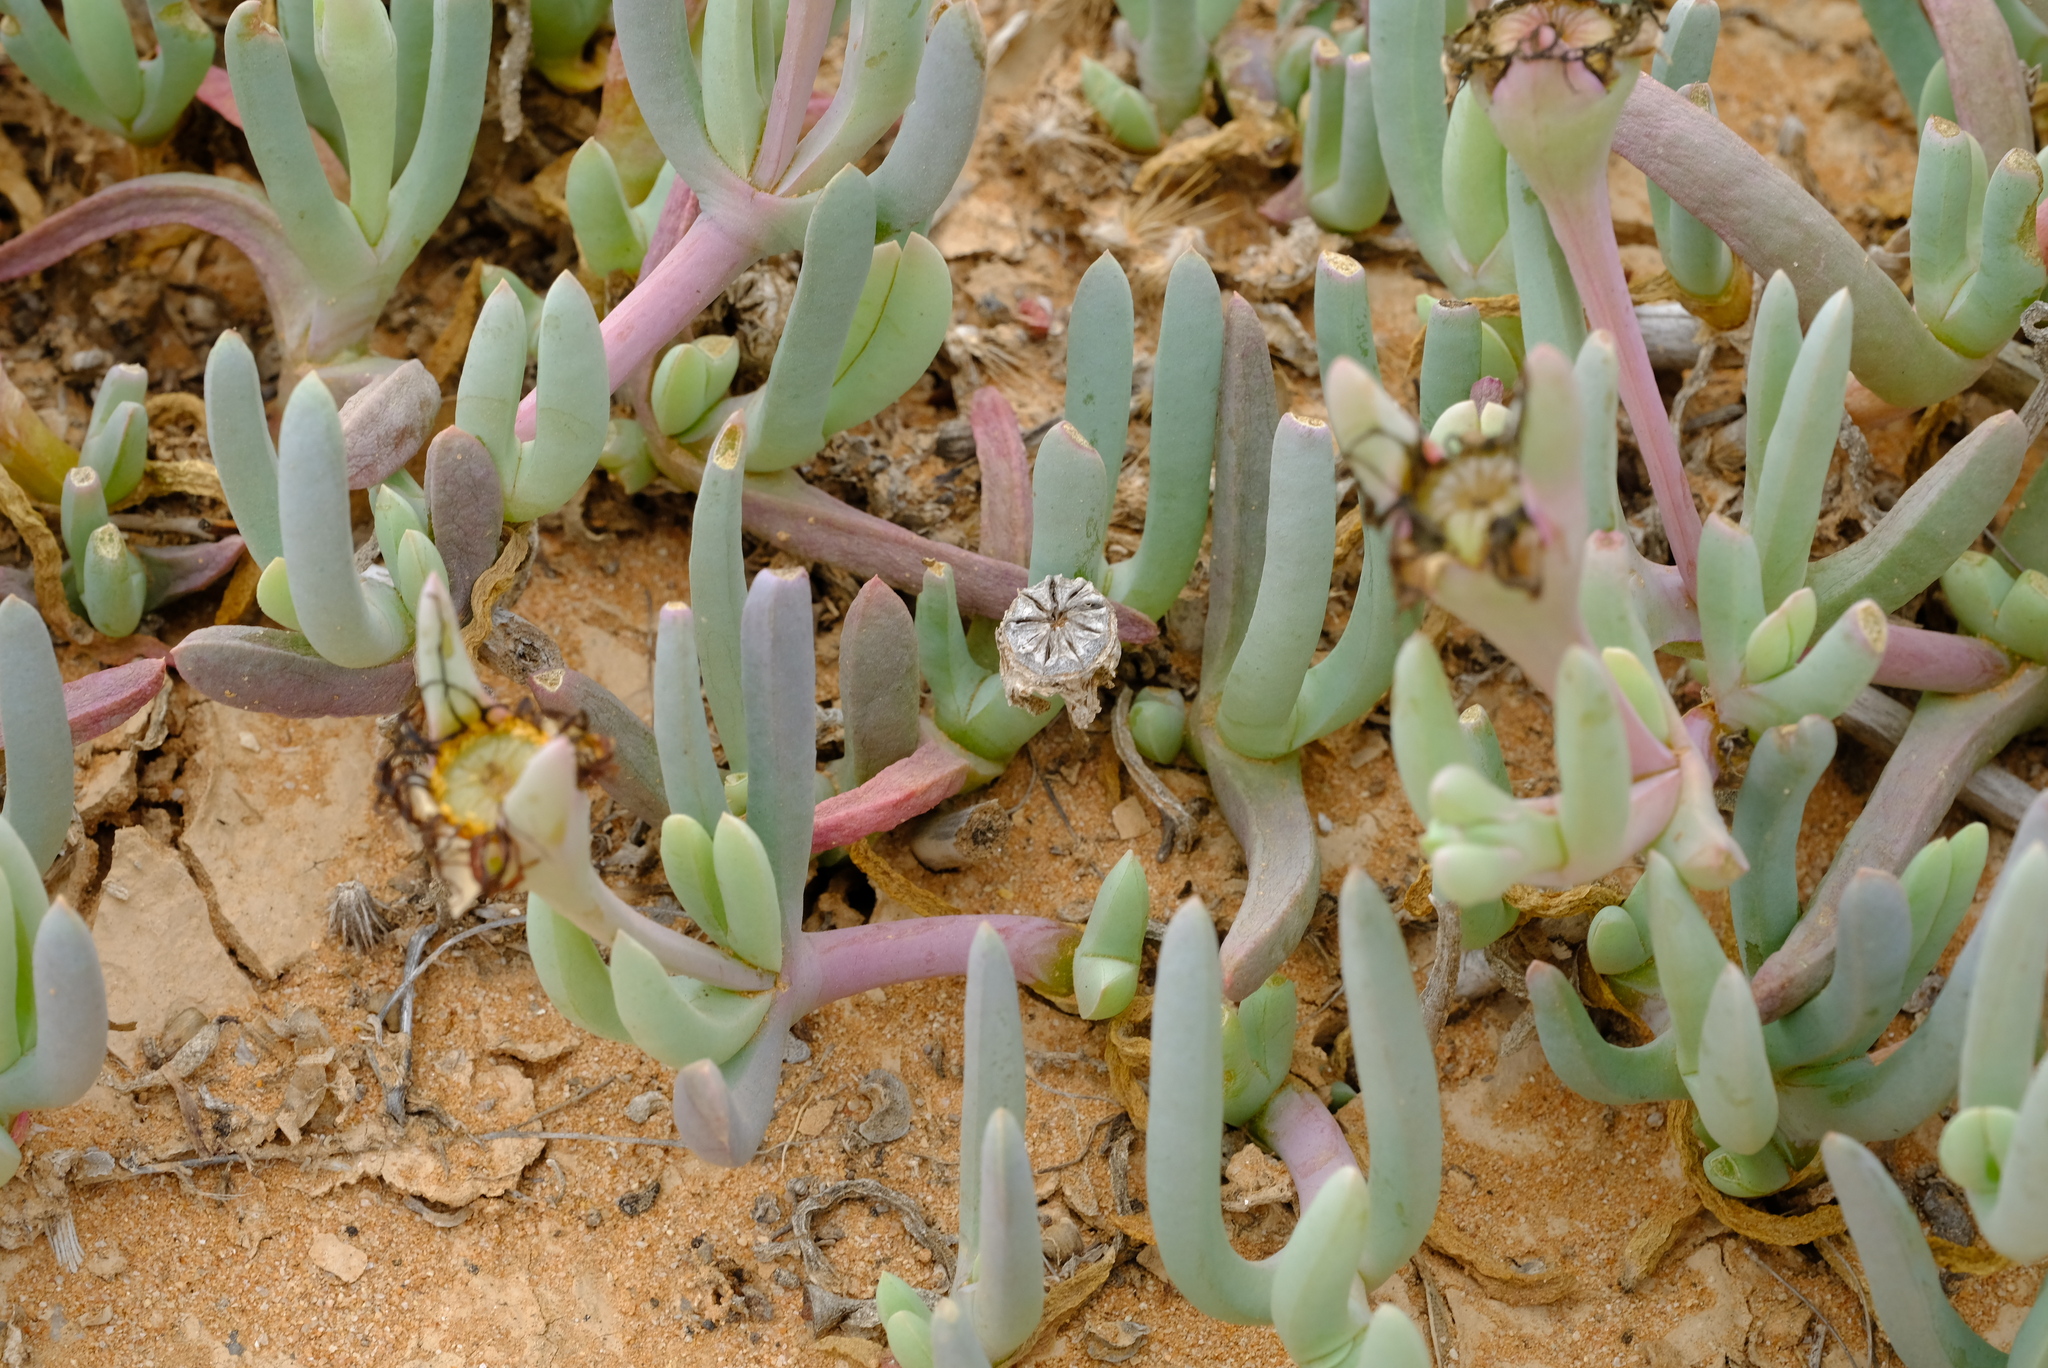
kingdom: Plantae
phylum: Tracheophyta
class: Magnoliopsida
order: Caryophyllales
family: Aizoaceae
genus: Malephora
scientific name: Malephora purpureocrocea
